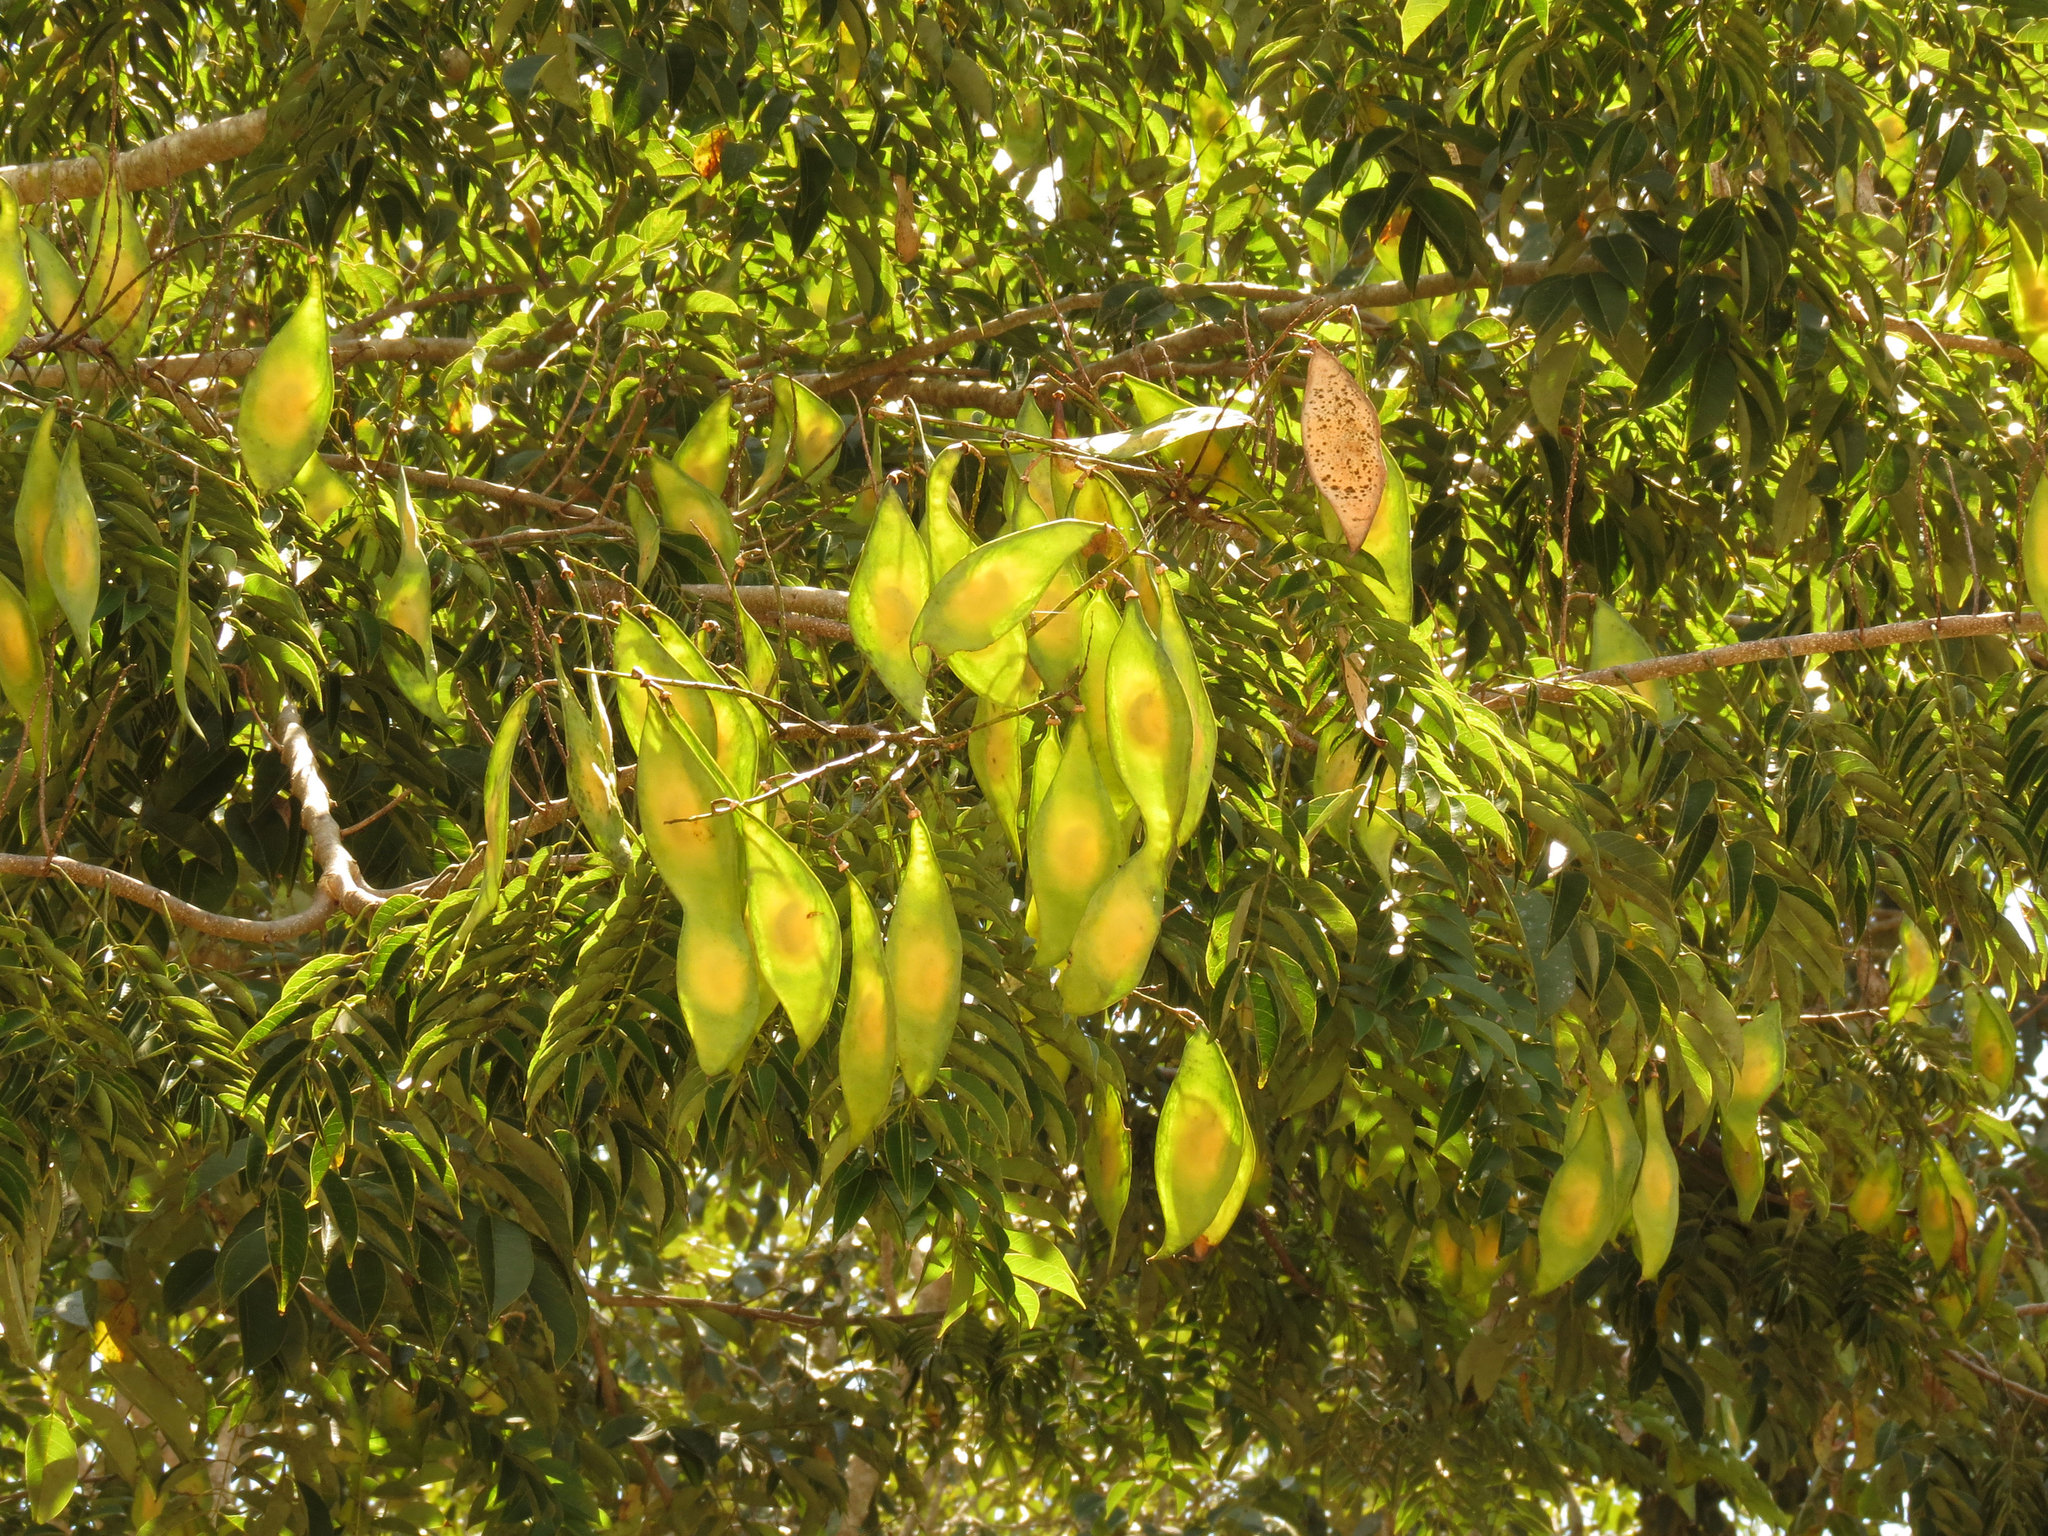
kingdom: Plantae
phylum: Tracheophyta
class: Magnoliopsida
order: Fabales
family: Fabaceae
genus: Lonchocarpus
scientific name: Lonchocarpus punctatus
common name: Dotted lancepod
